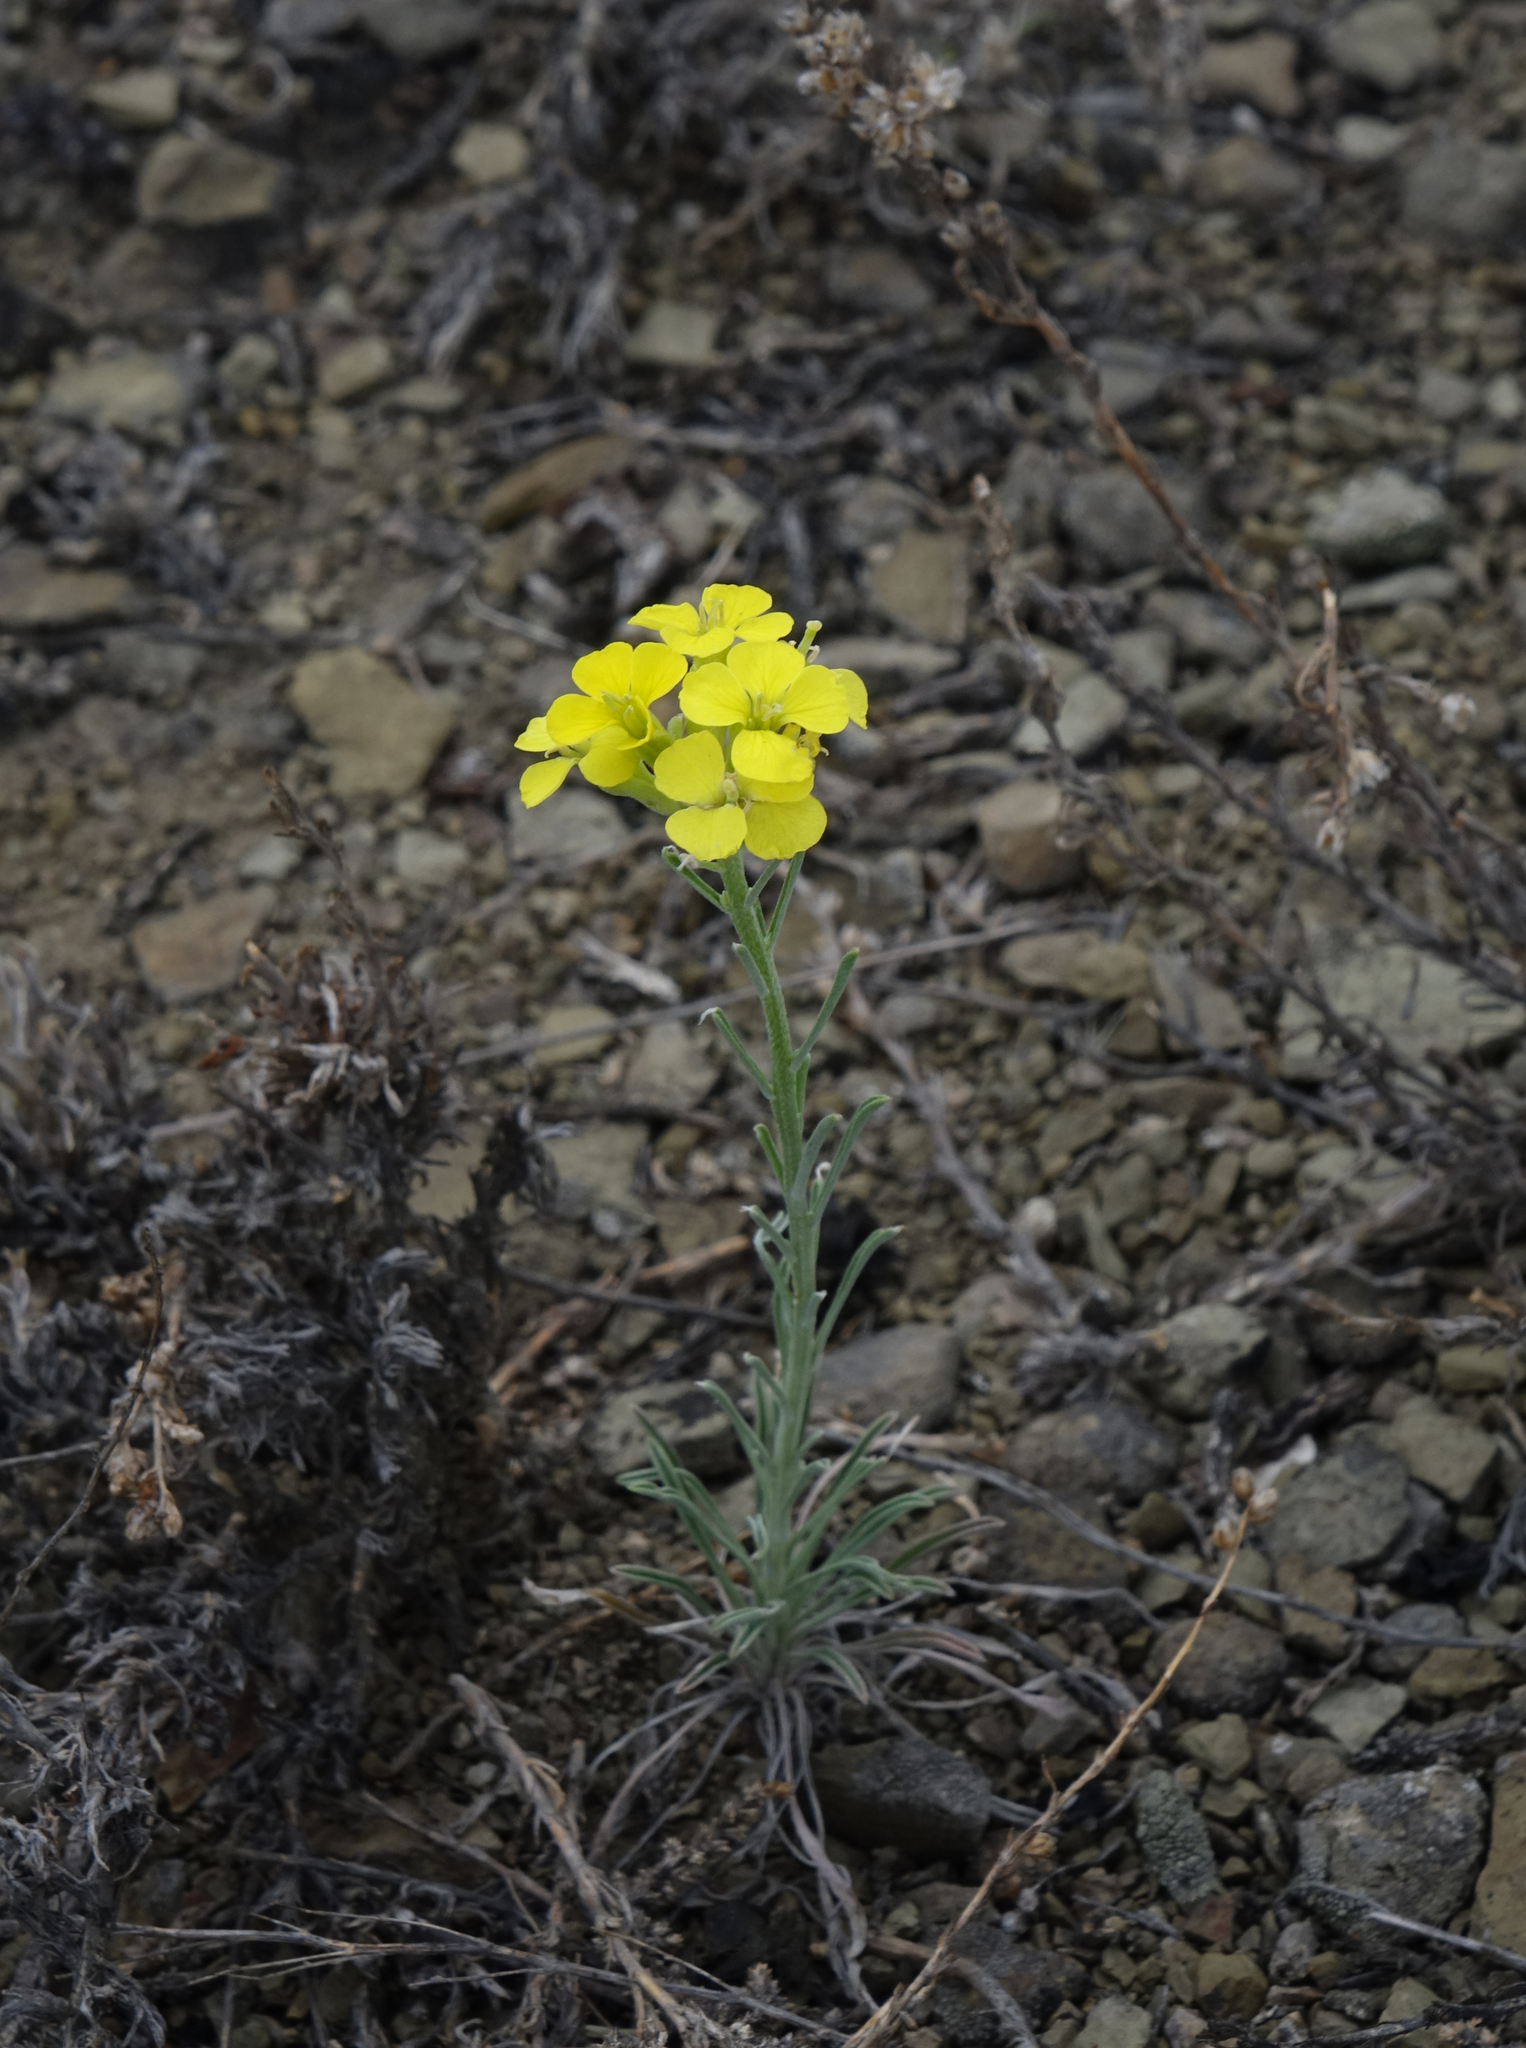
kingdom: Plantae
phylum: Tracheophyta
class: Magnoliopsida
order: Brassicales
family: Brassicaceae
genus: Erysimum
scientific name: Erysimum flavum
